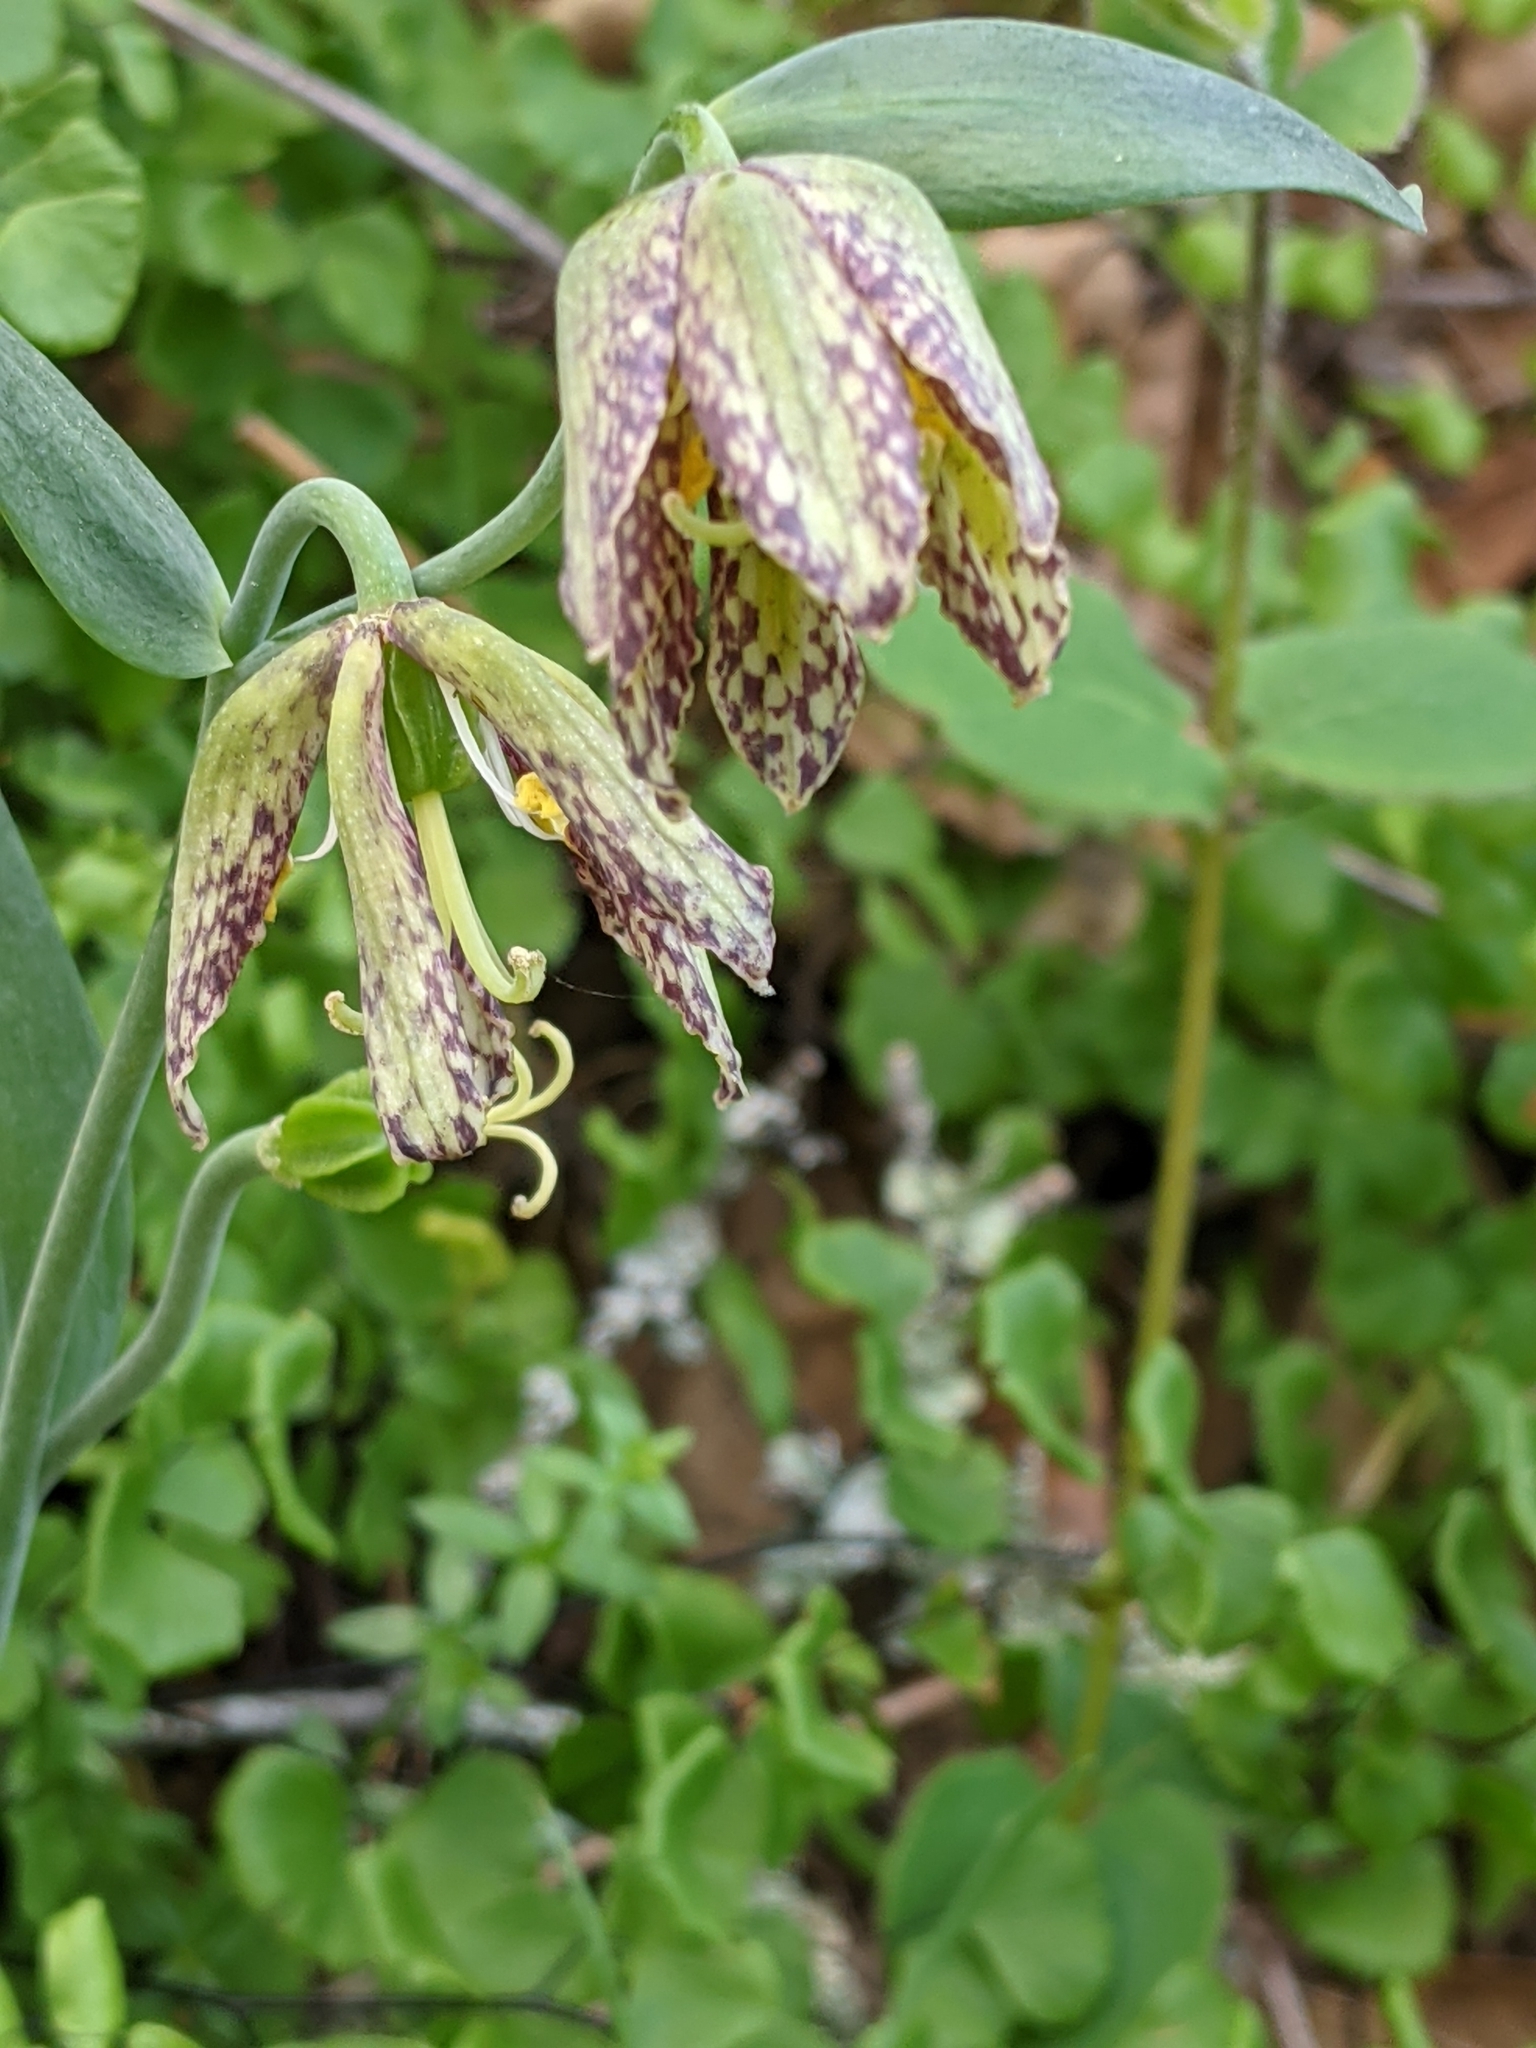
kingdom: Plantae
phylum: Tracheophyta
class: Liliopsida
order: Liliales
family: Liliaceae
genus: Fritillaria
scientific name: Fritillaria affinis
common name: Ojai fritillary
